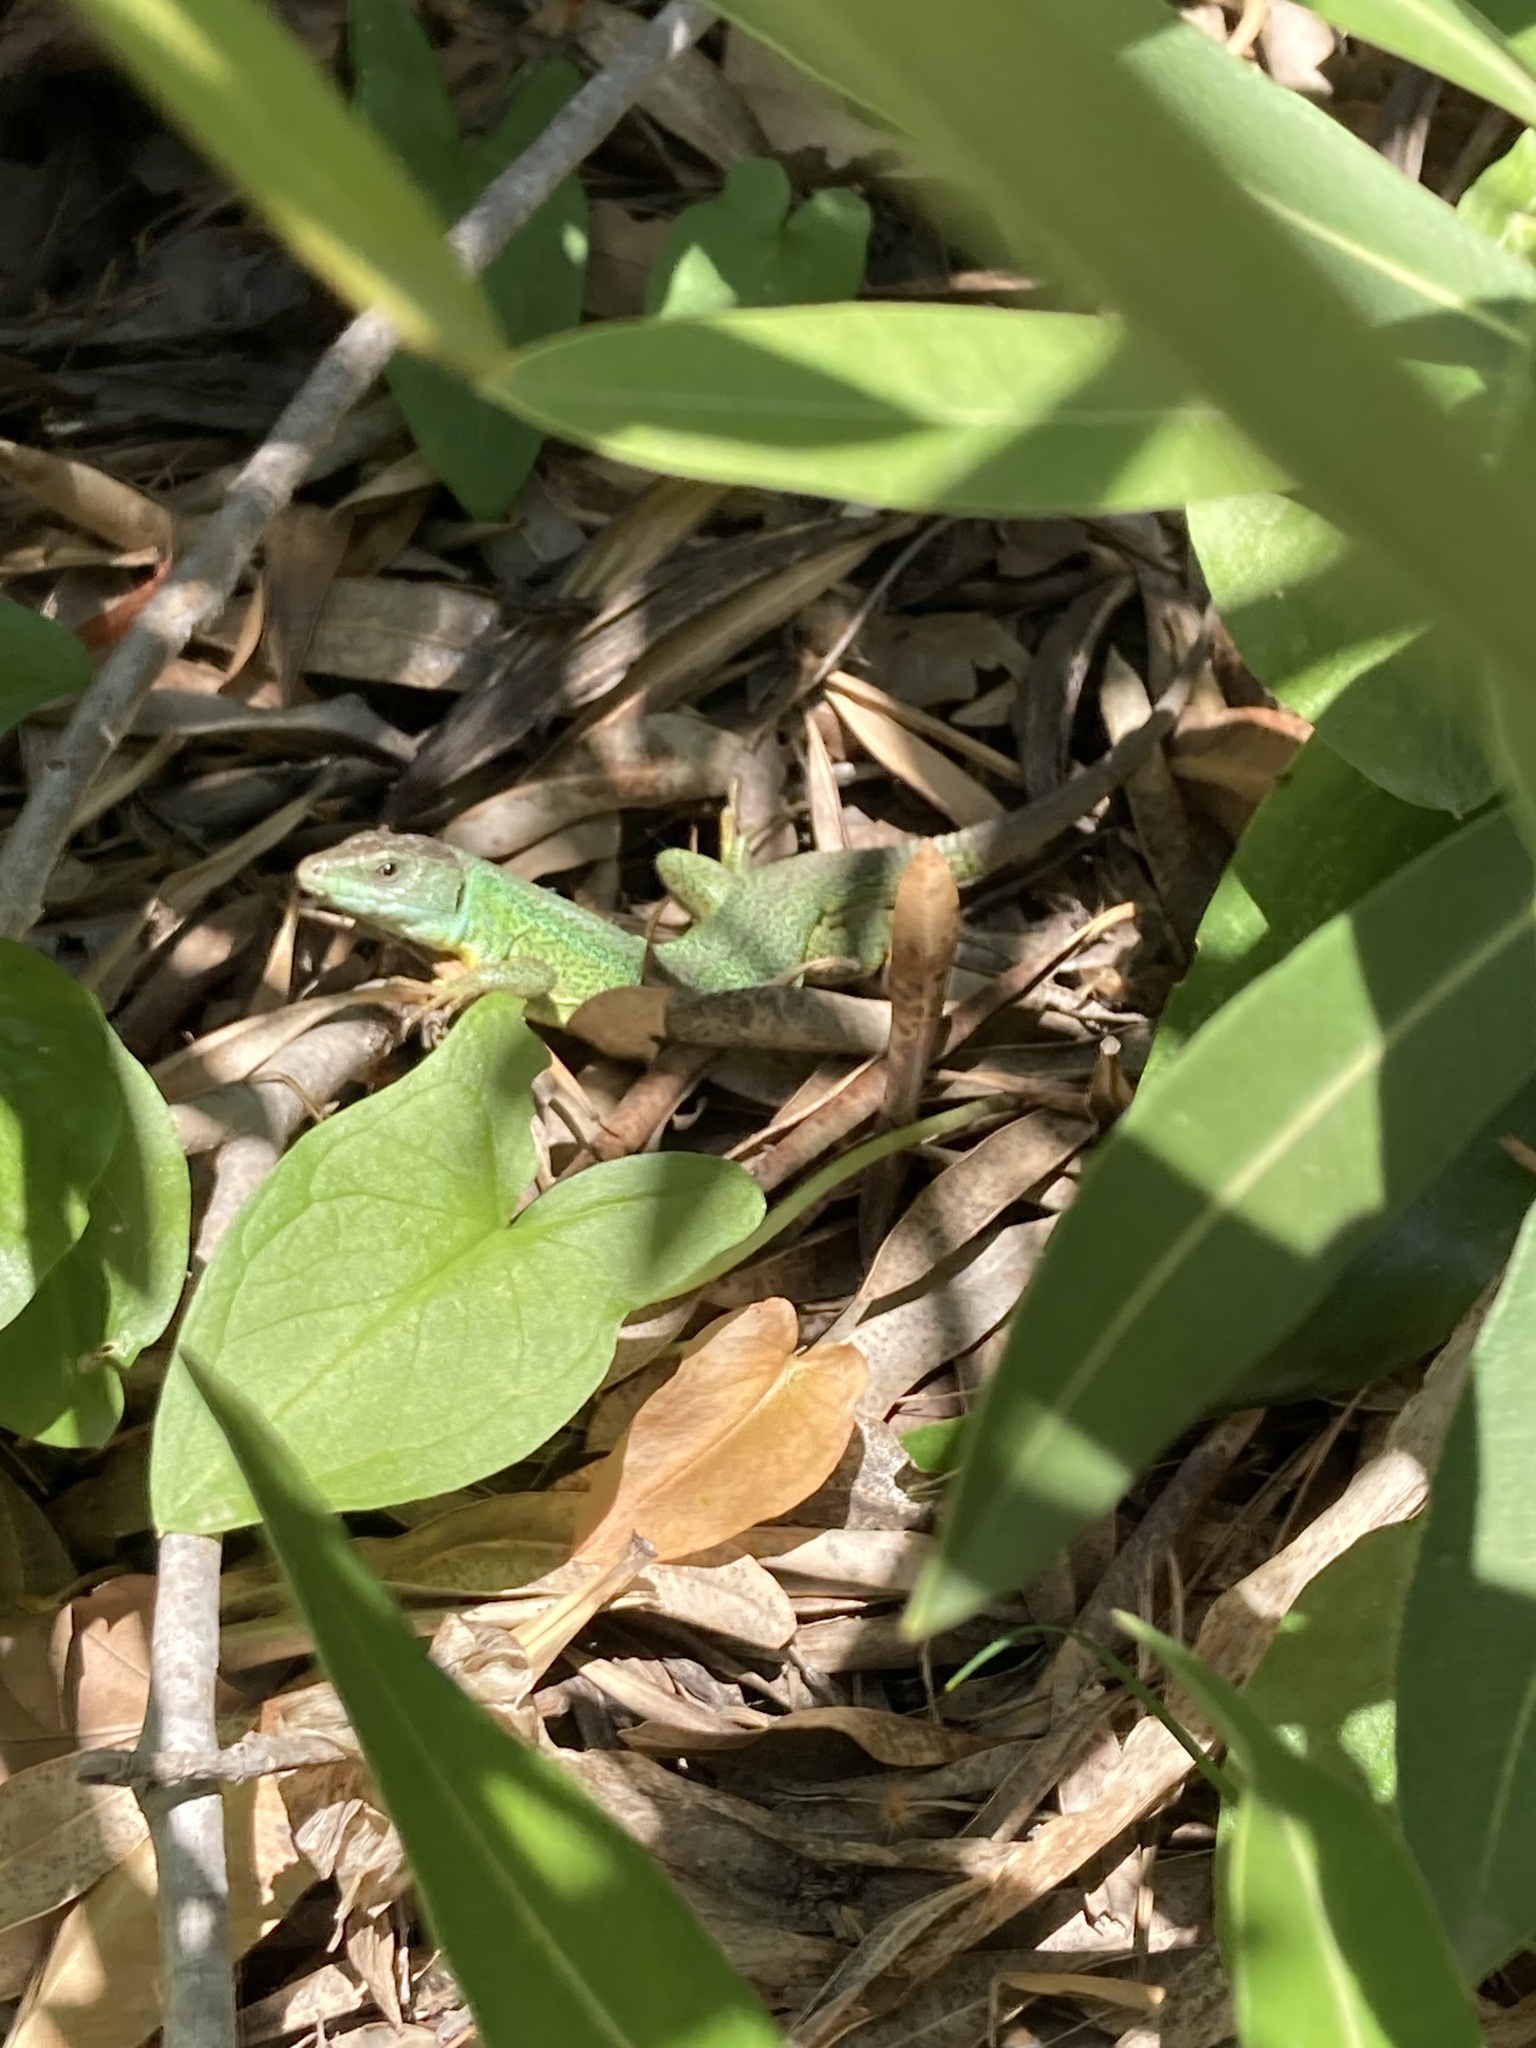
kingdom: Animalia
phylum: Chordata
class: Squamata
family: Lacertidae
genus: Lacerta
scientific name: Lacerta trilineata
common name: Balkan green lizard
